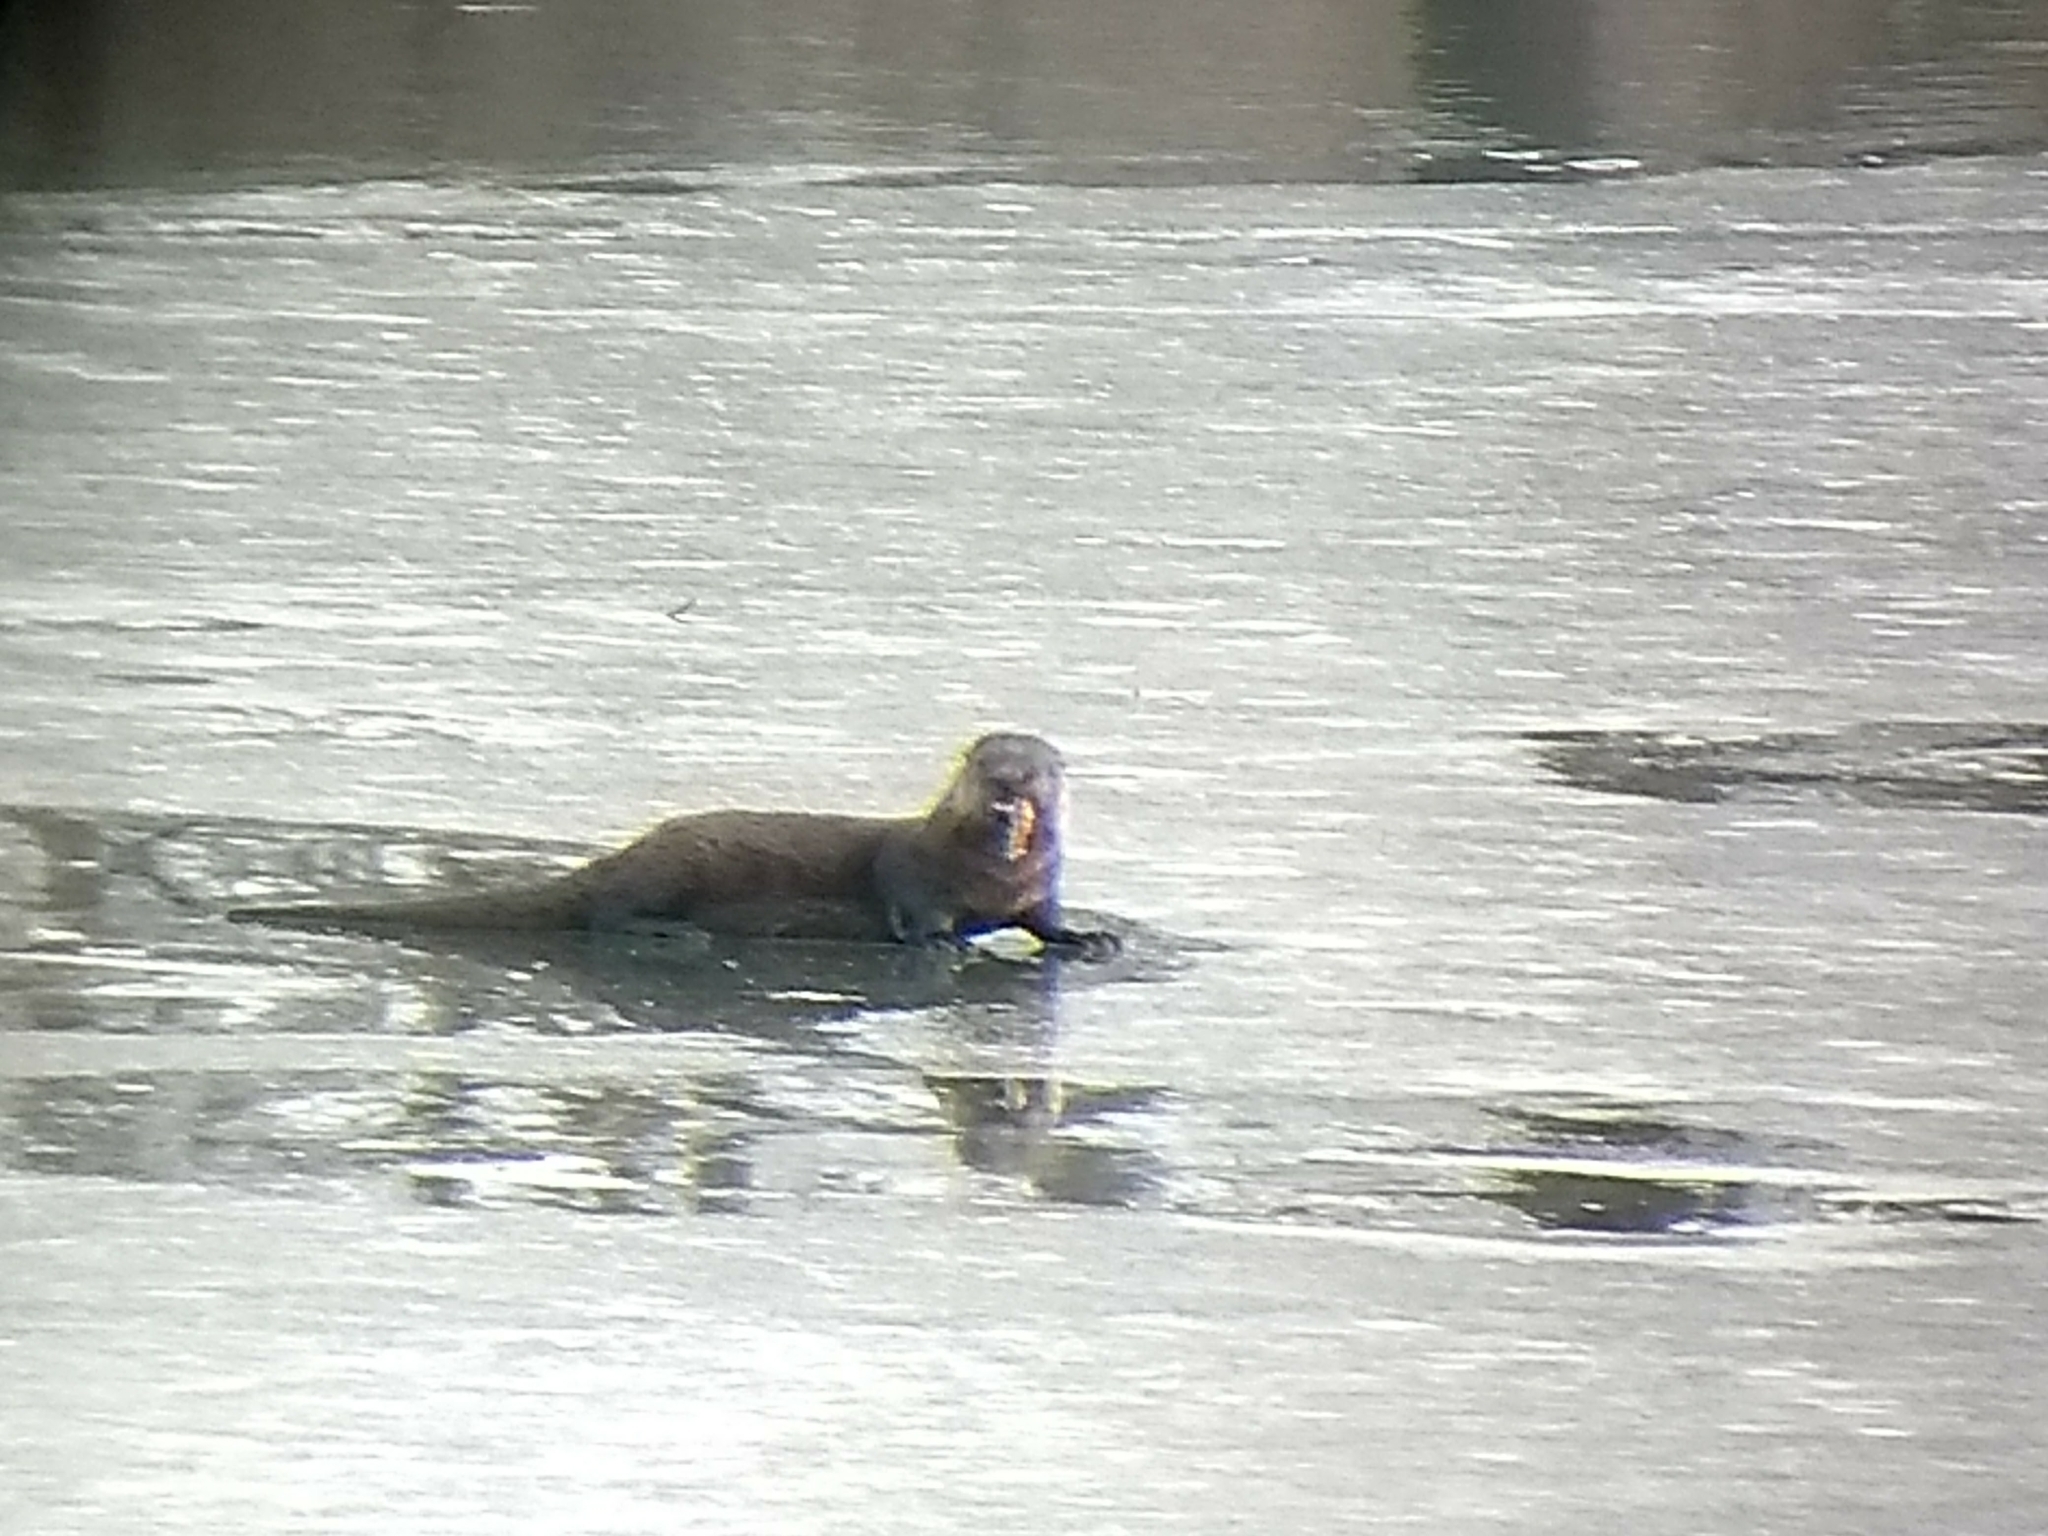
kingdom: Animalia
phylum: Chordata
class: Mammalia
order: Carnivora
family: Mustelidae
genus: Lontra
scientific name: Lontra canadensis
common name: North american river otter
